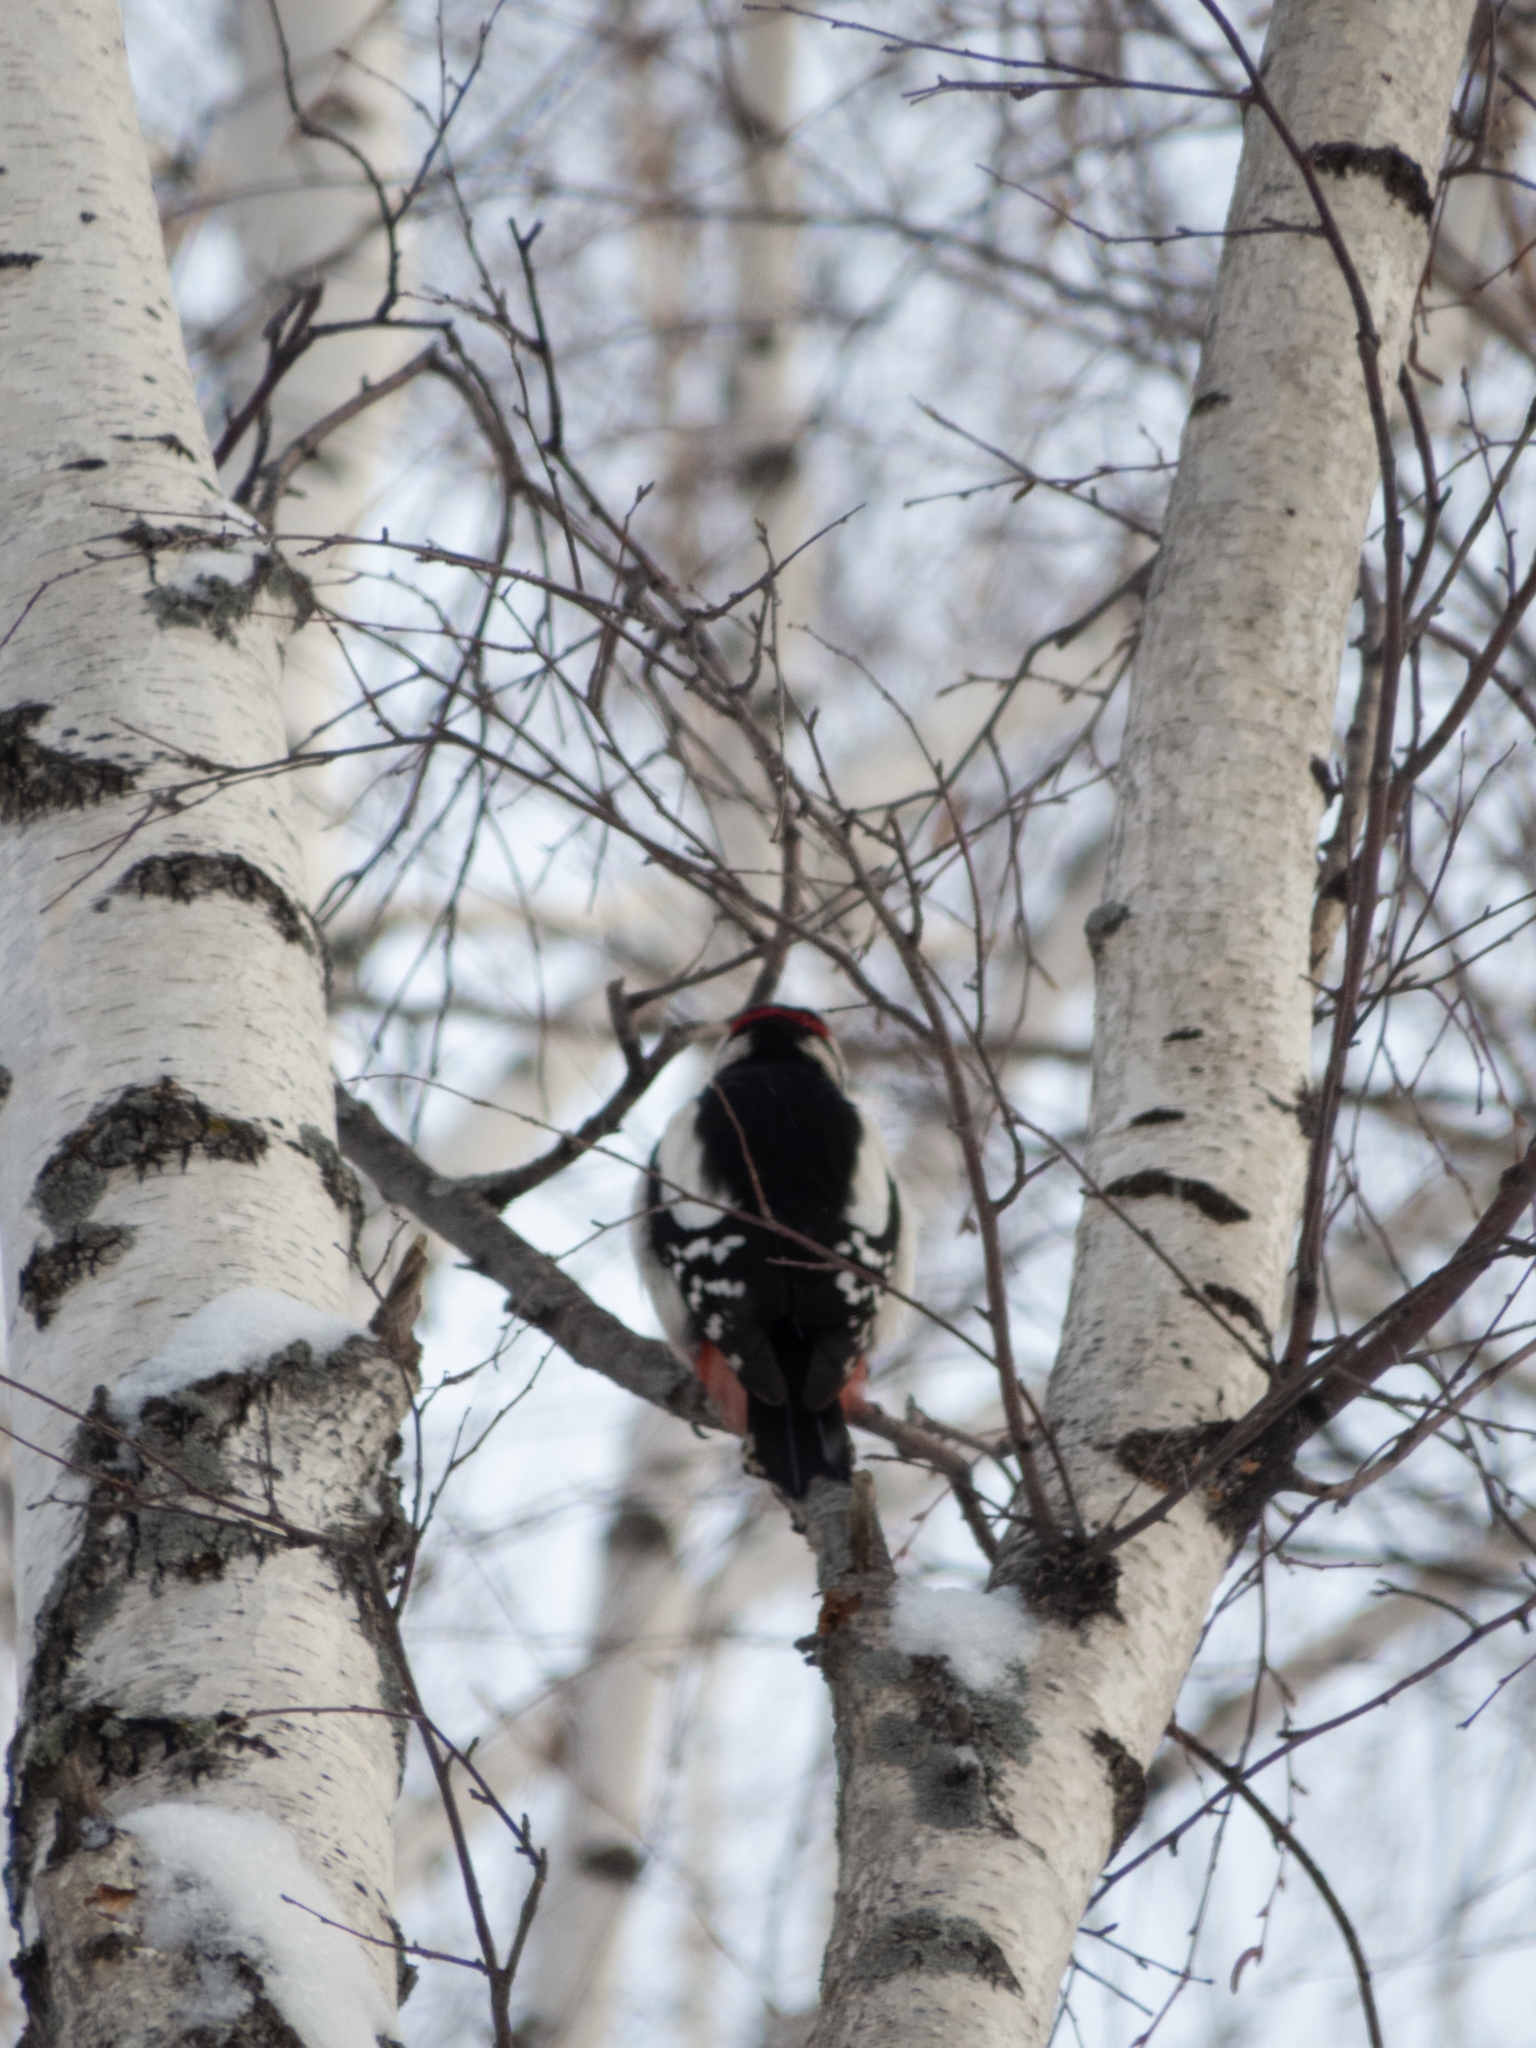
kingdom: Animalia
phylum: Chordata
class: Aves
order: Piciformes
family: Picidae
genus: Dendrocopos
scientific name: Dendrocopos major
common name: Great spotted woodpecker
